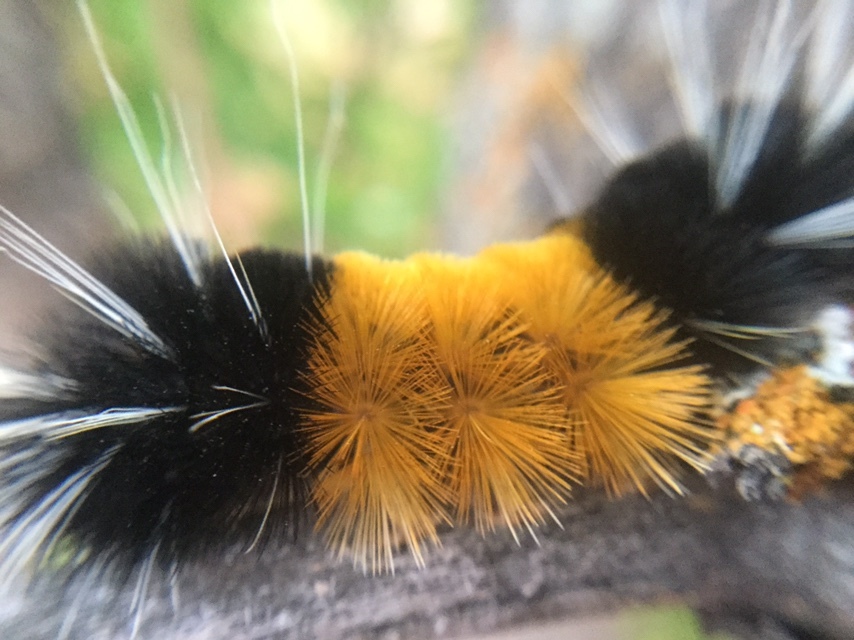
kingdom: Animalia
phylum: Arthropoda
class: Insecta
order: Lepidoptera
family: Erebidae
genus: Lophocampa
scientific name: Lophocampa maculata
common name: Spotted tussock moth
